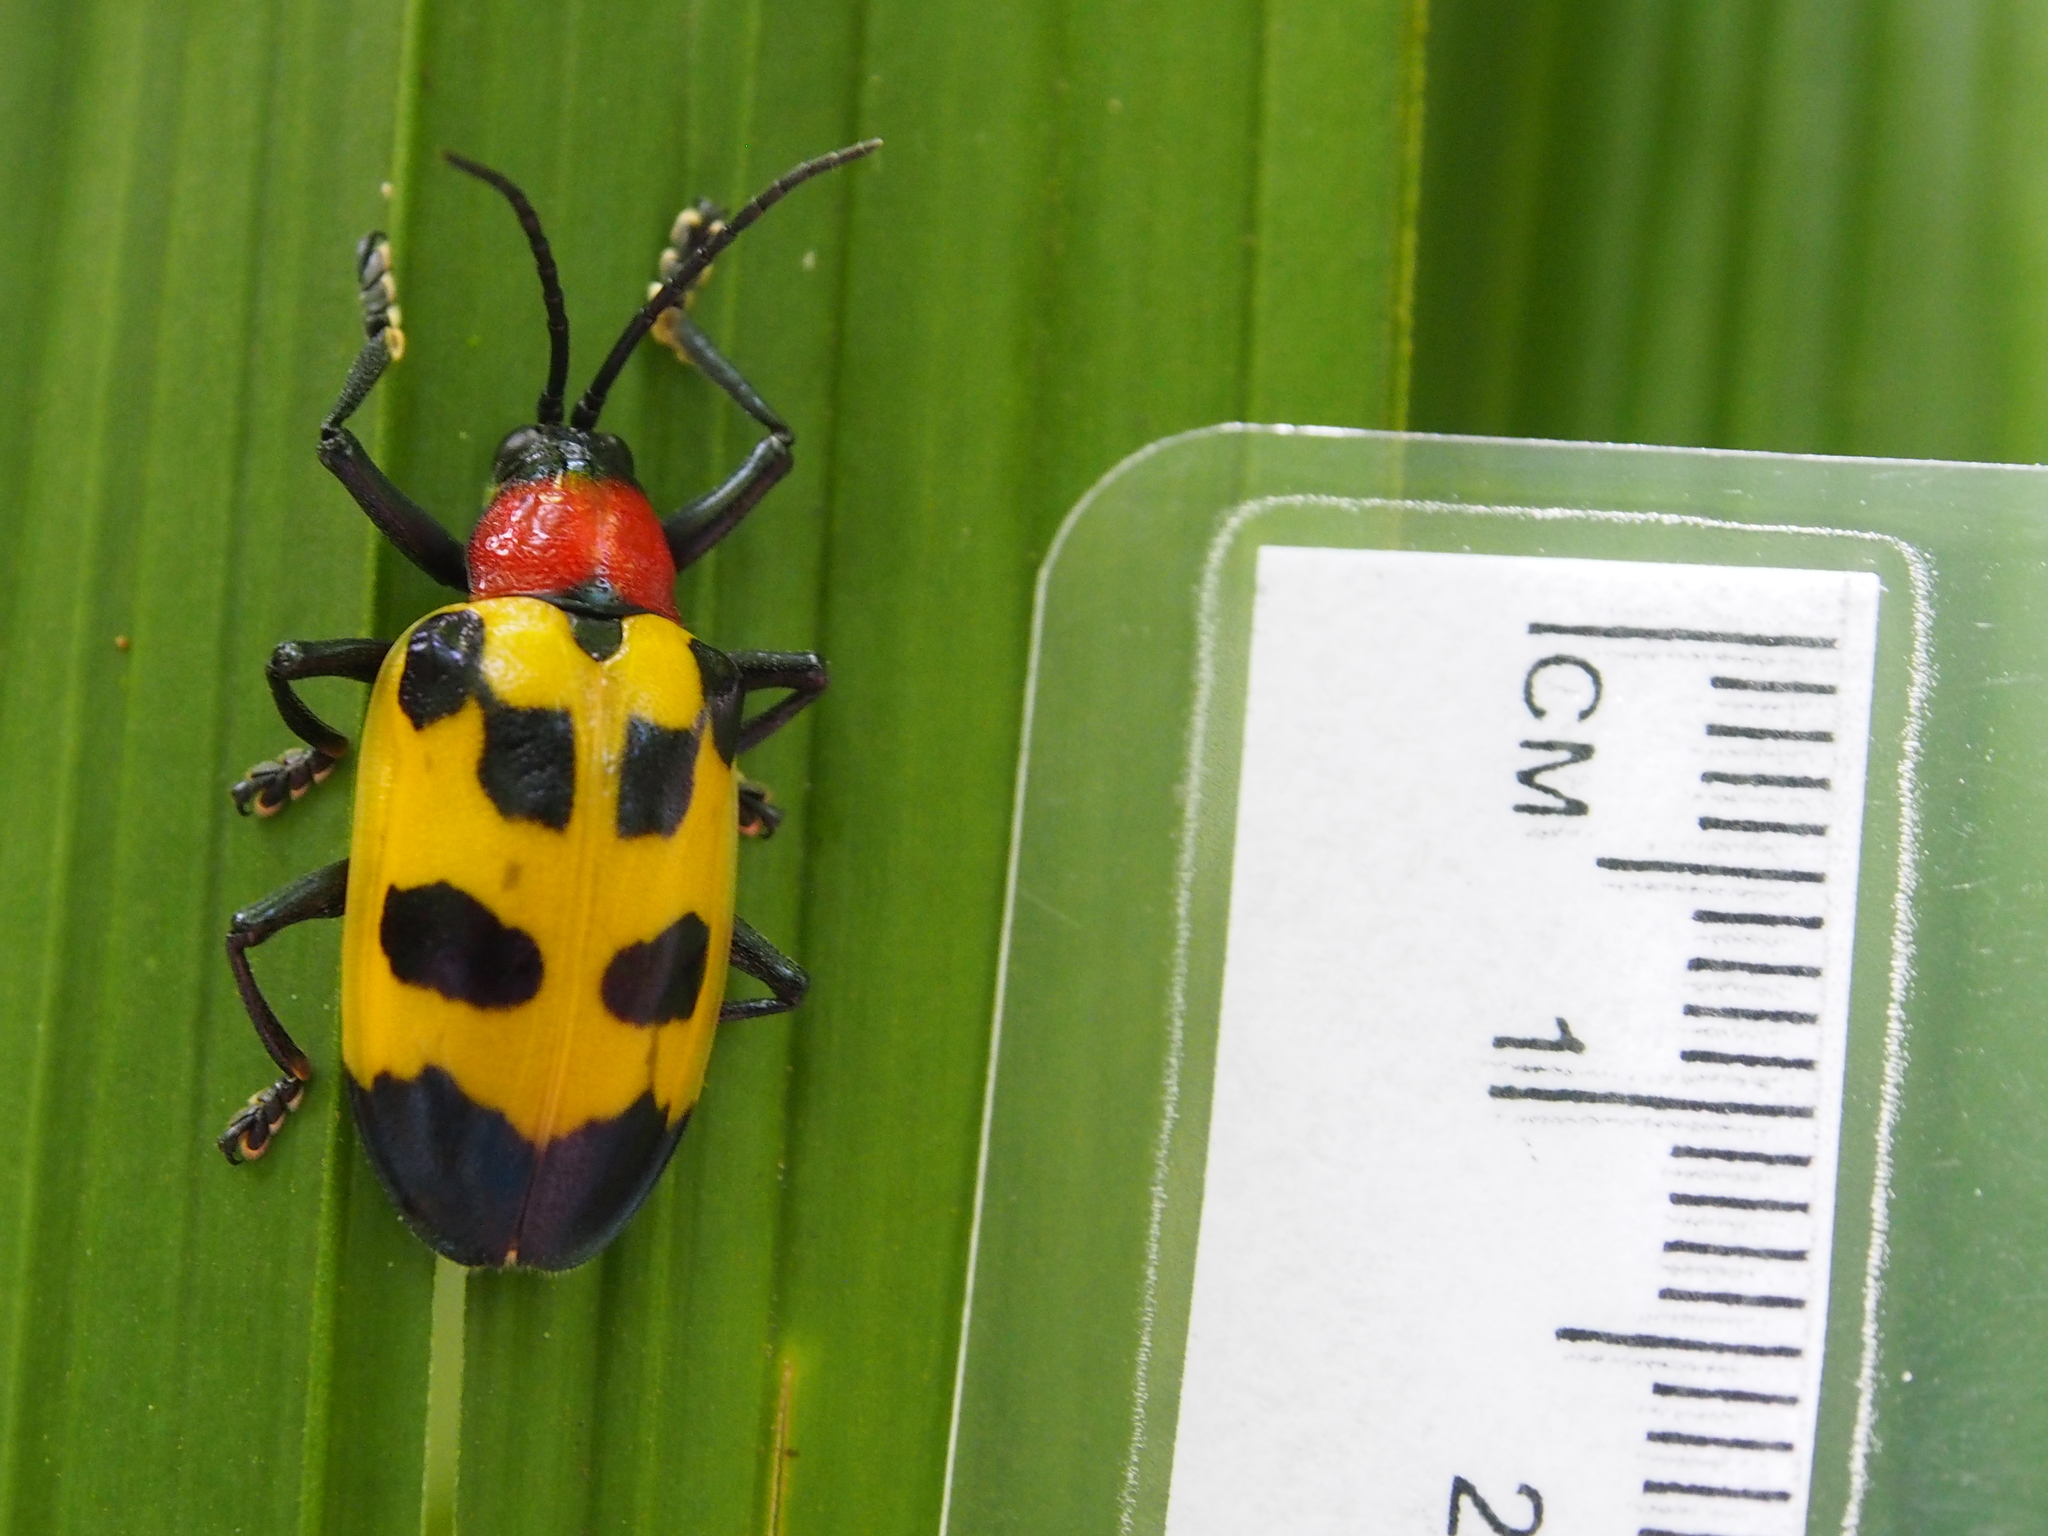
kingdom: Animalia
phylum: Arthropoda
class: Insecta
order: Coleoptera
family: Chrysomelidae
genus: Alurnus
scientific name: Alurnus ornatus
